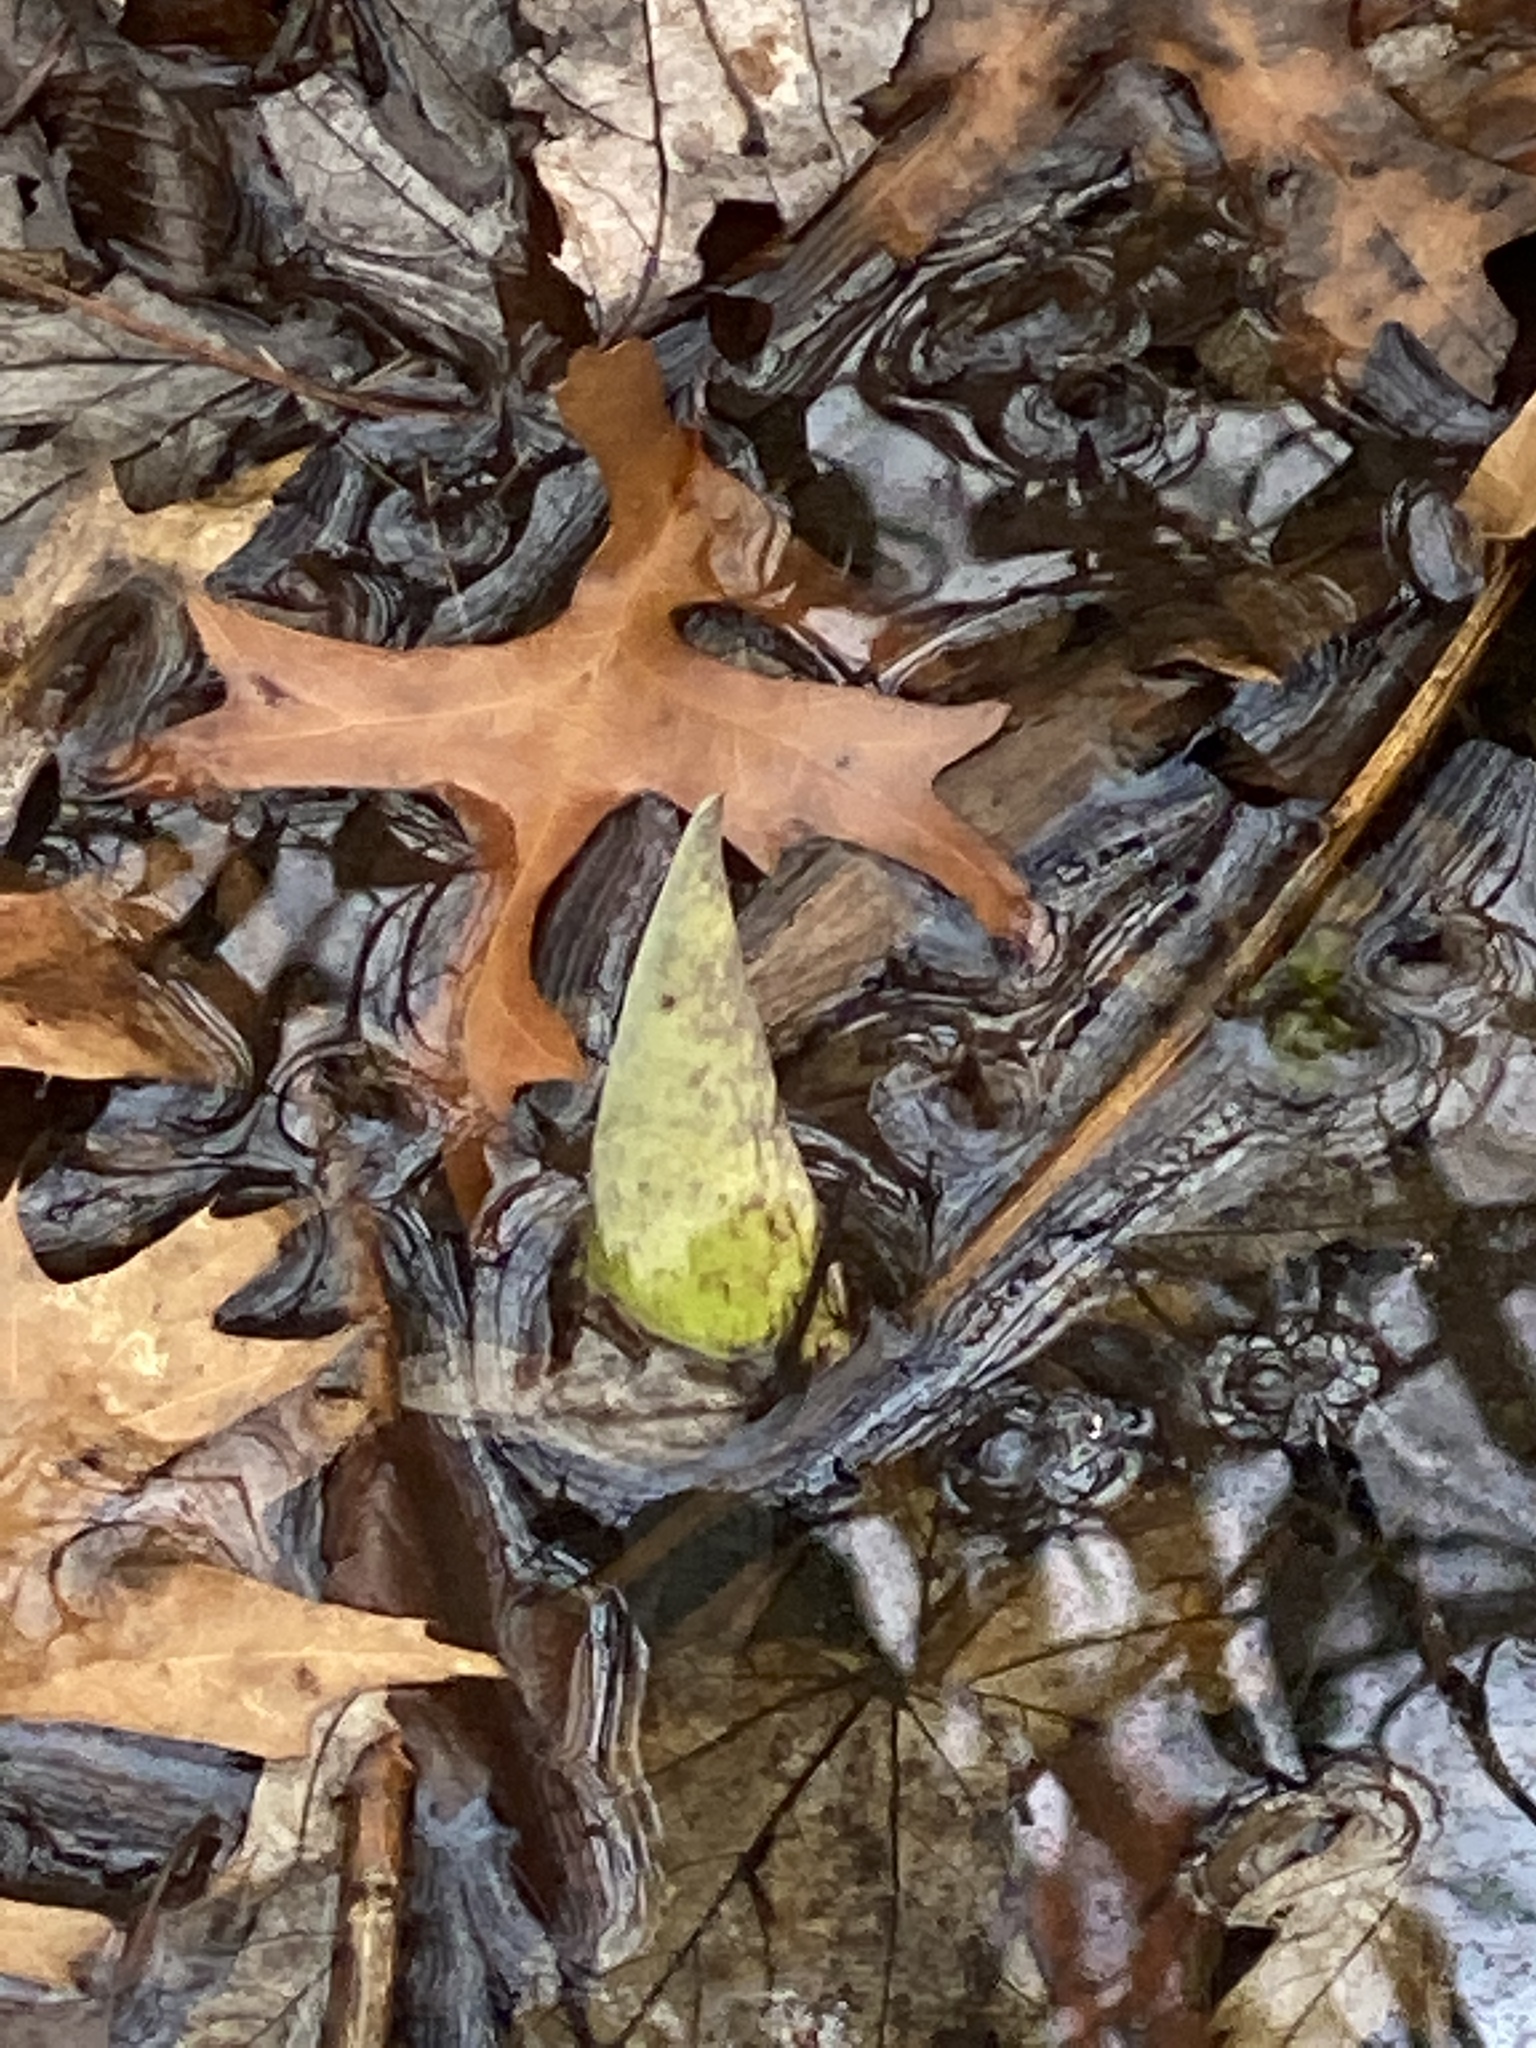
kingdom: Plantae
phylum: Tracheophyta
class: Liliopsida
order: Alismatales
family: Araceae
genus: Symplocarpus
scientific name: Symplocarpus foetidus
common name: Eastern skunk cabbage
